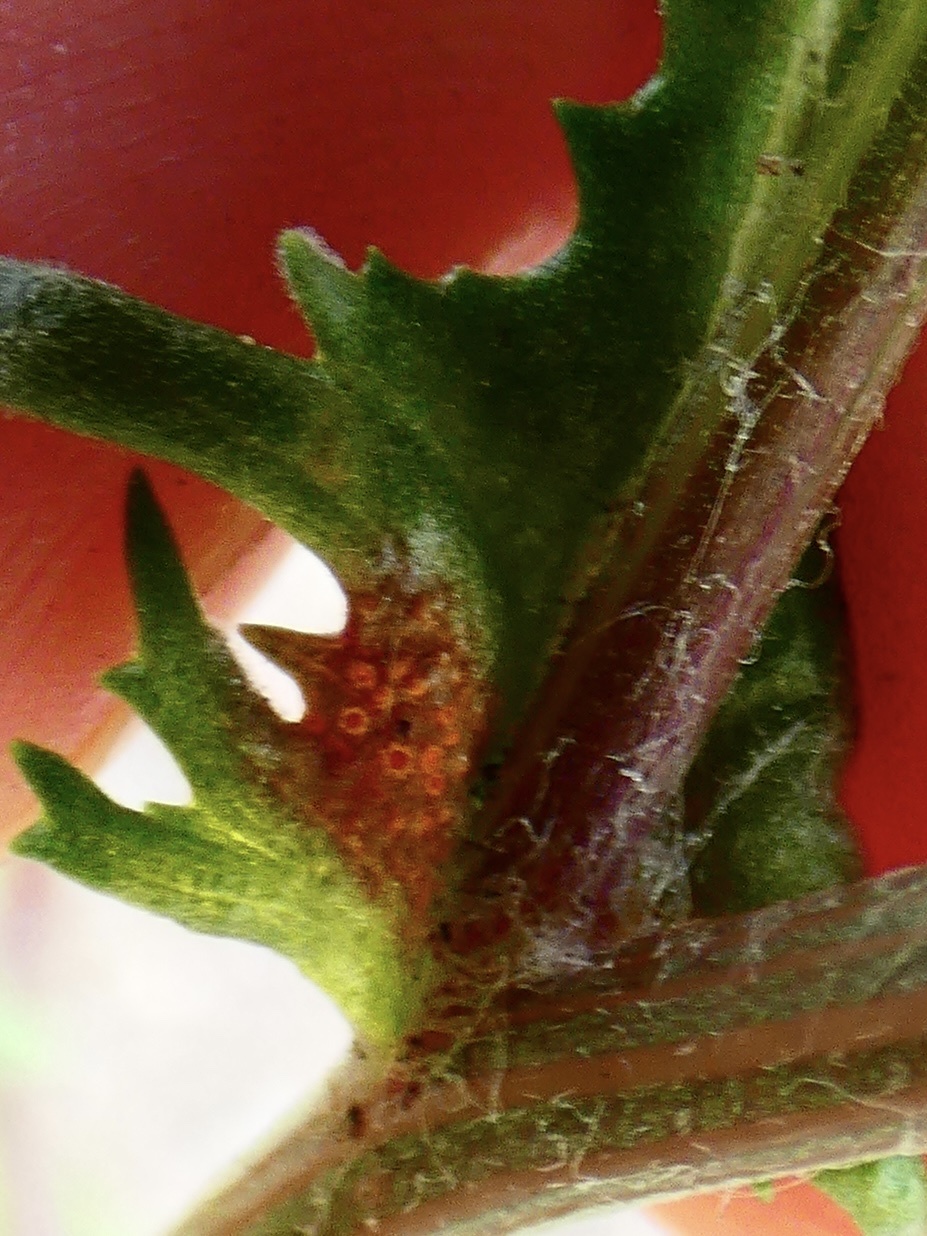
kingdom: Fungi
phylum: Basidiomycota
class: Pucciniomycetes
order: Pucciniales
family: Pucciniaceae
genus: Puccinia
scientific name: Puccinia lagenophorae
